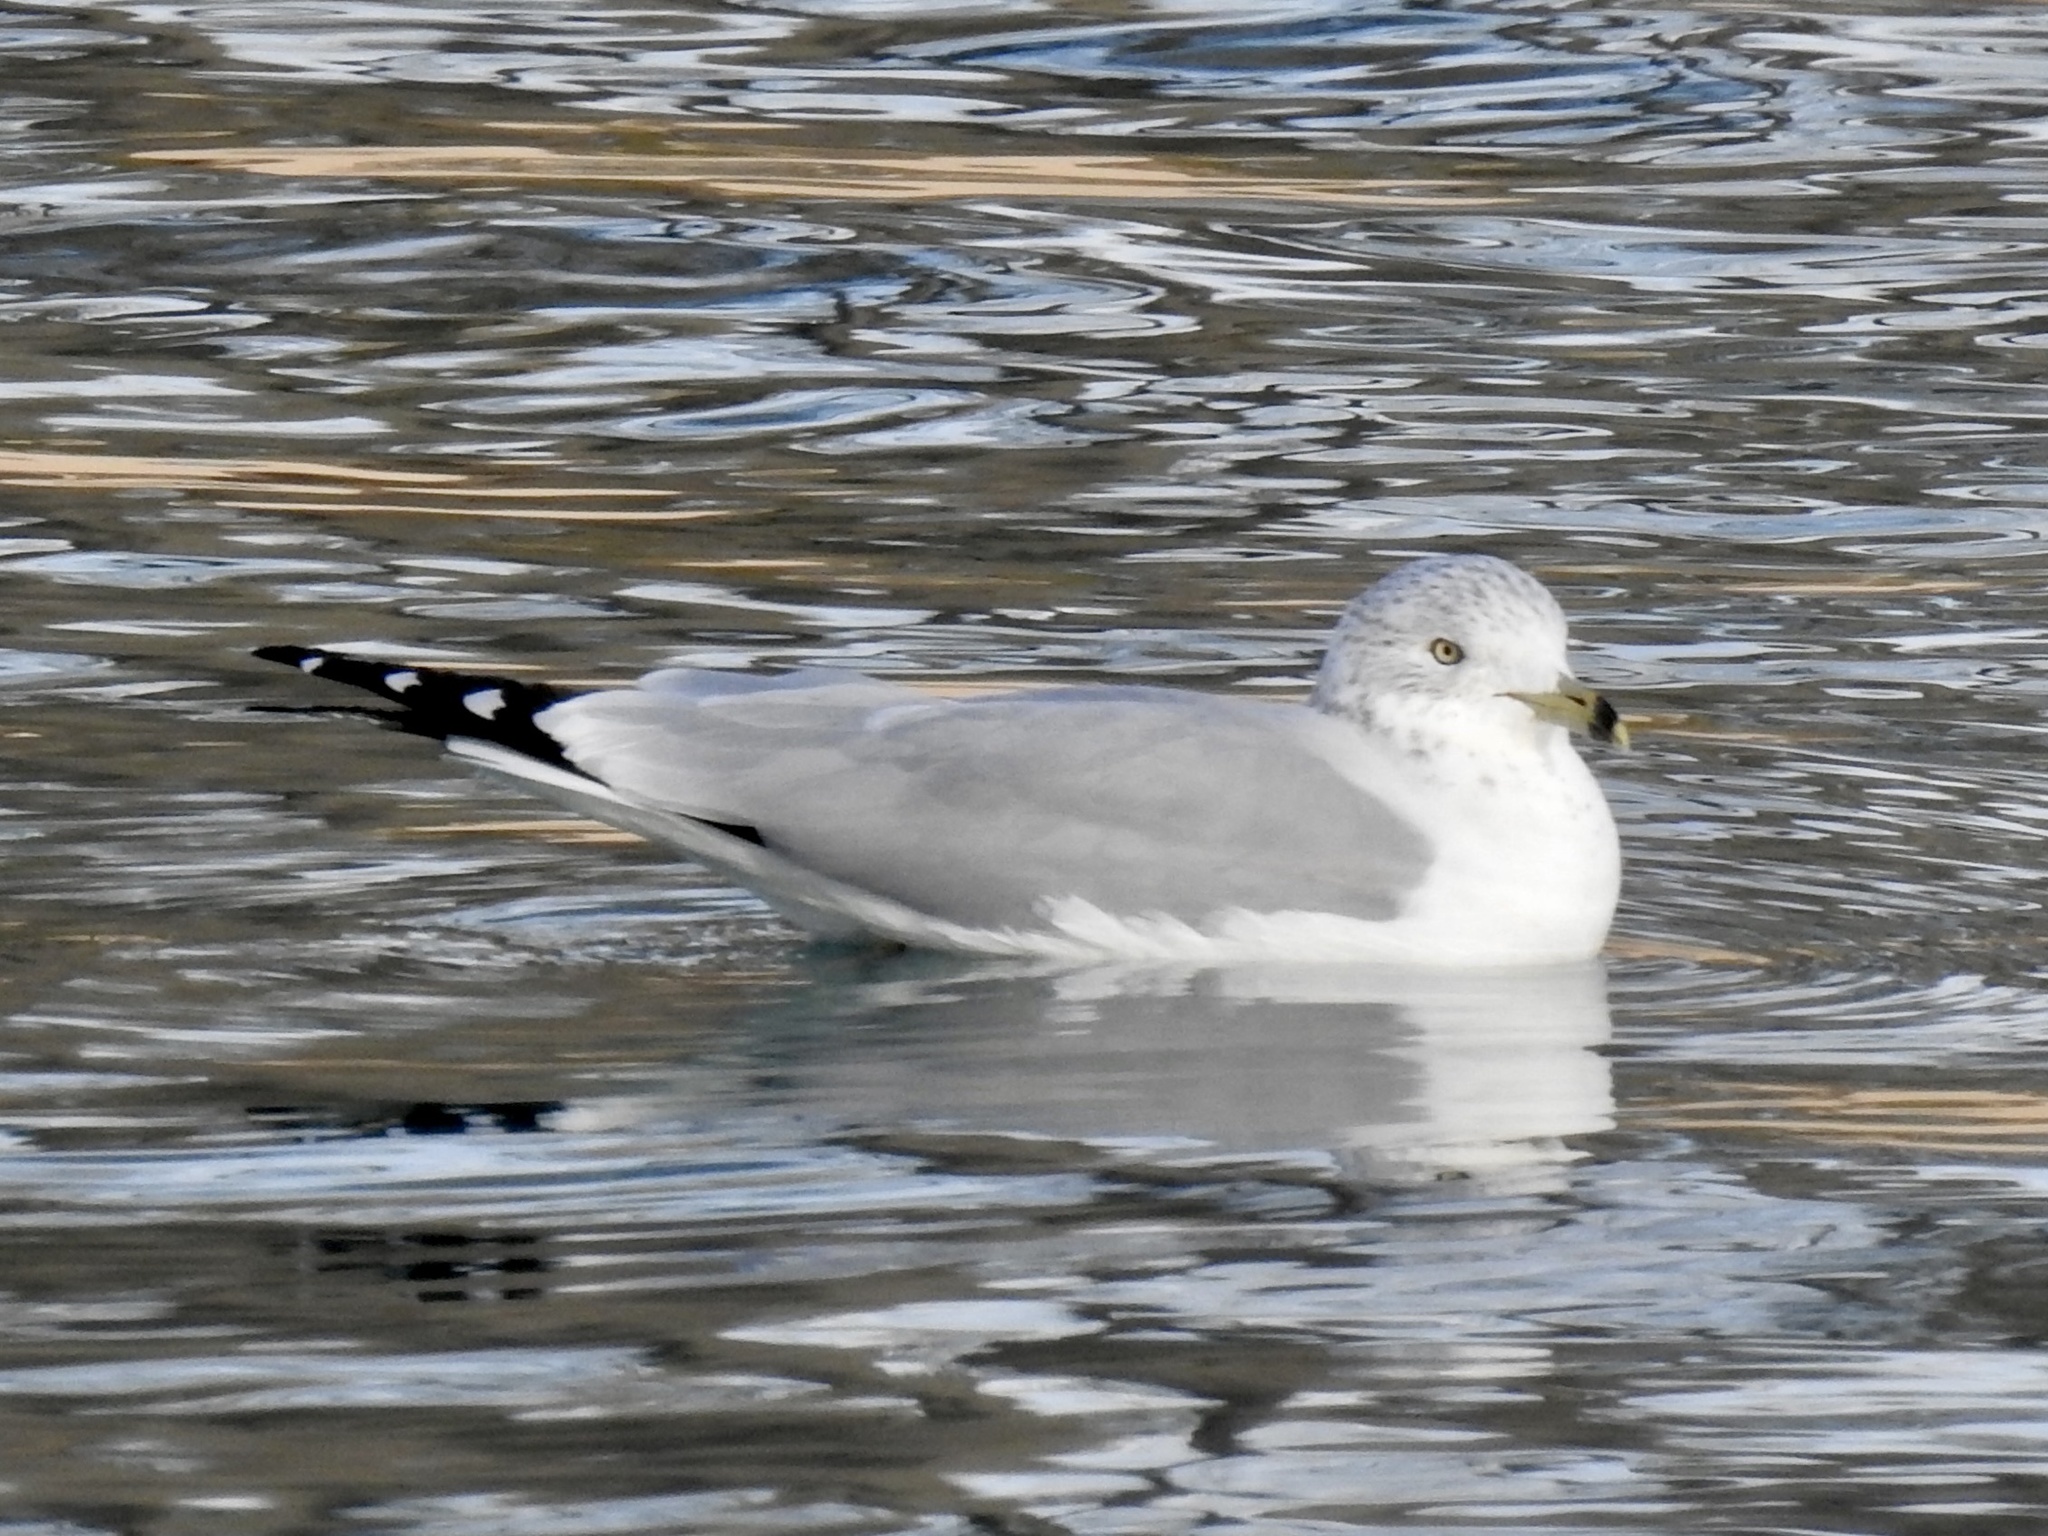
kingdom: Animalia
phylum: Chordata
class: Aves
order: Charadriiformes
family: Laridae
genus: Larus
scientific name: Larus delawarensis
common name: Ring-billed gull
